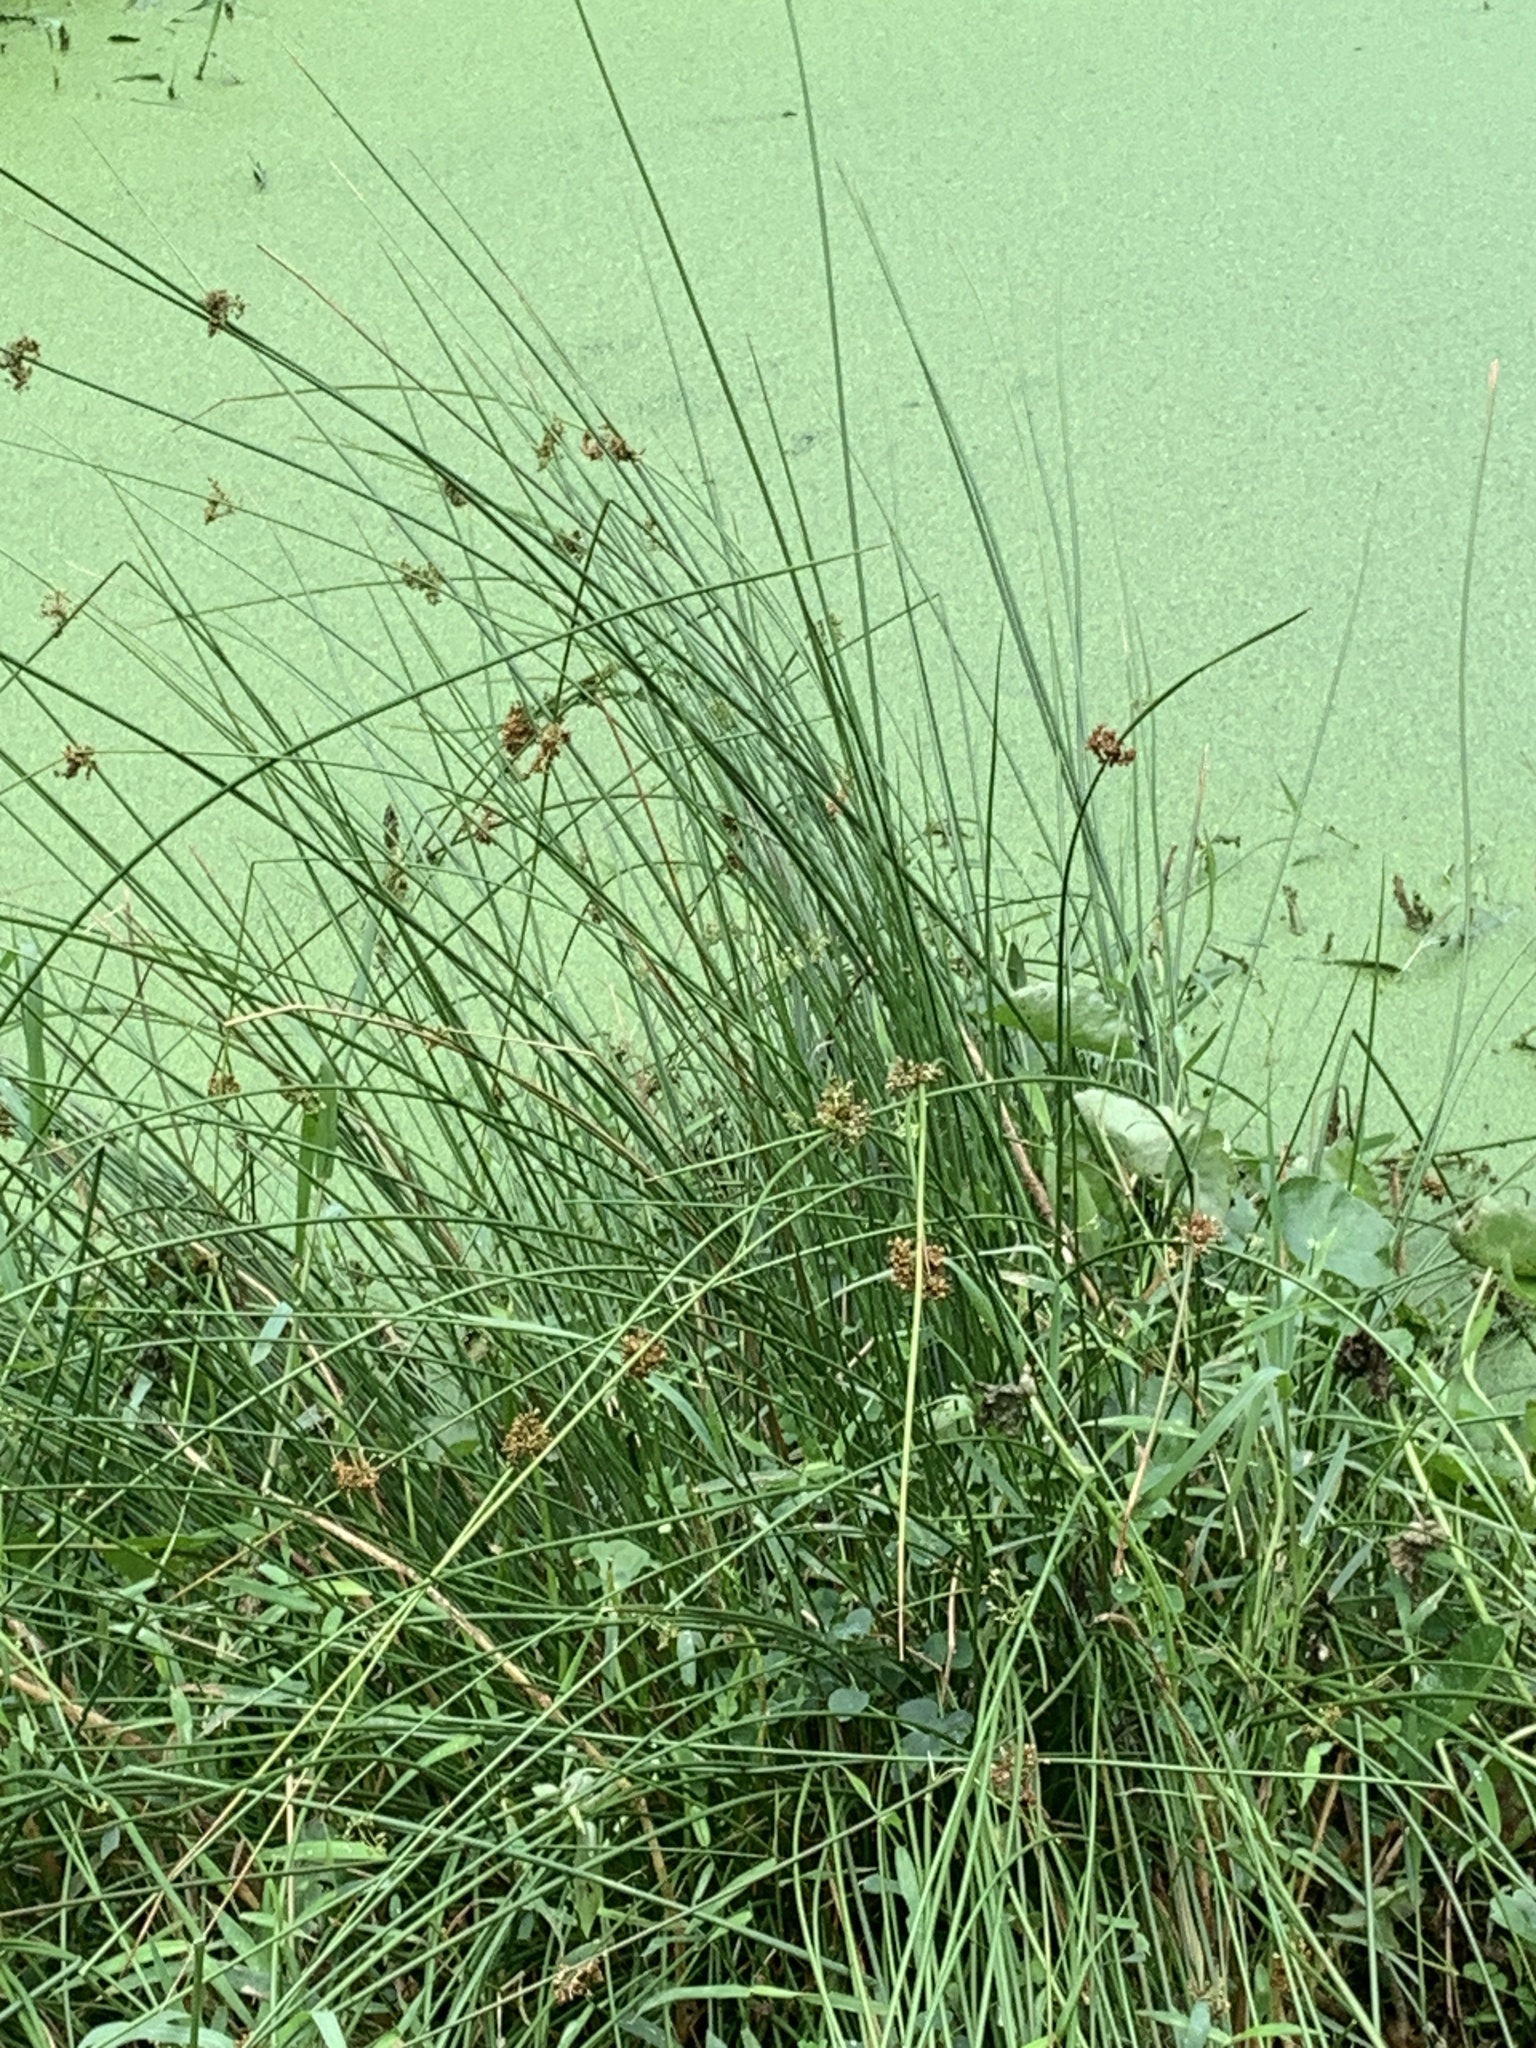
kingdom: Plantae
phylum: Tracheophyta
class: Liliopsida
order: Poales
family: Juncaceae
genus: Juncus
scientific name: Juncus effusus
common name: Soft rush
